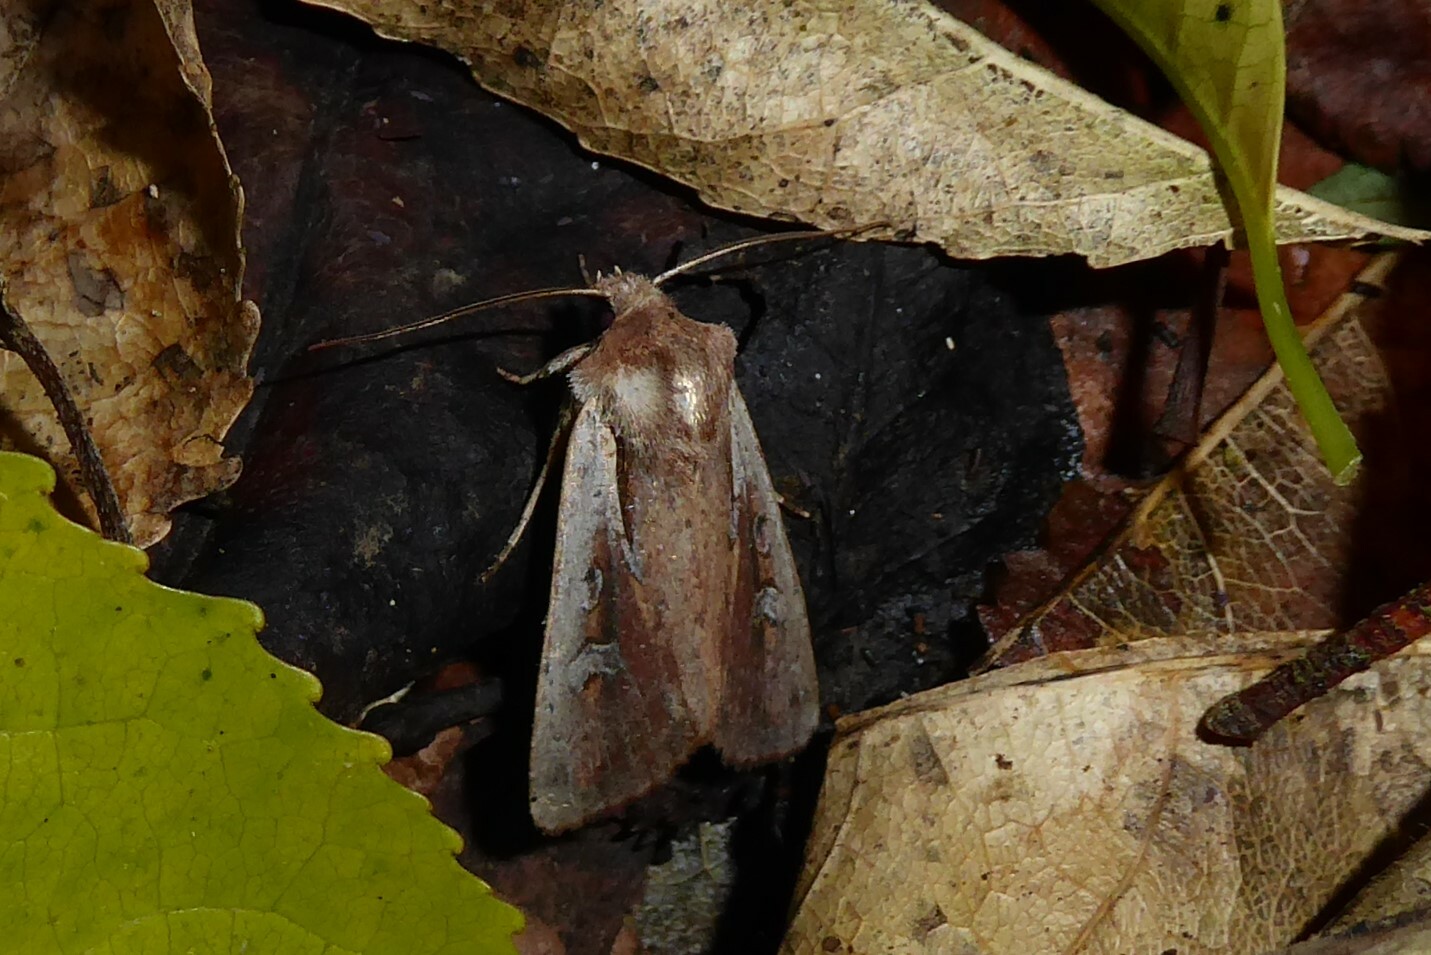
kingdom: Animalia
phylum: Arthropoda
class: Insecta
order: Lepidoptera
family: Noctuidae
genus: Ichneutica
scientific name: Ichneutica atristriga
